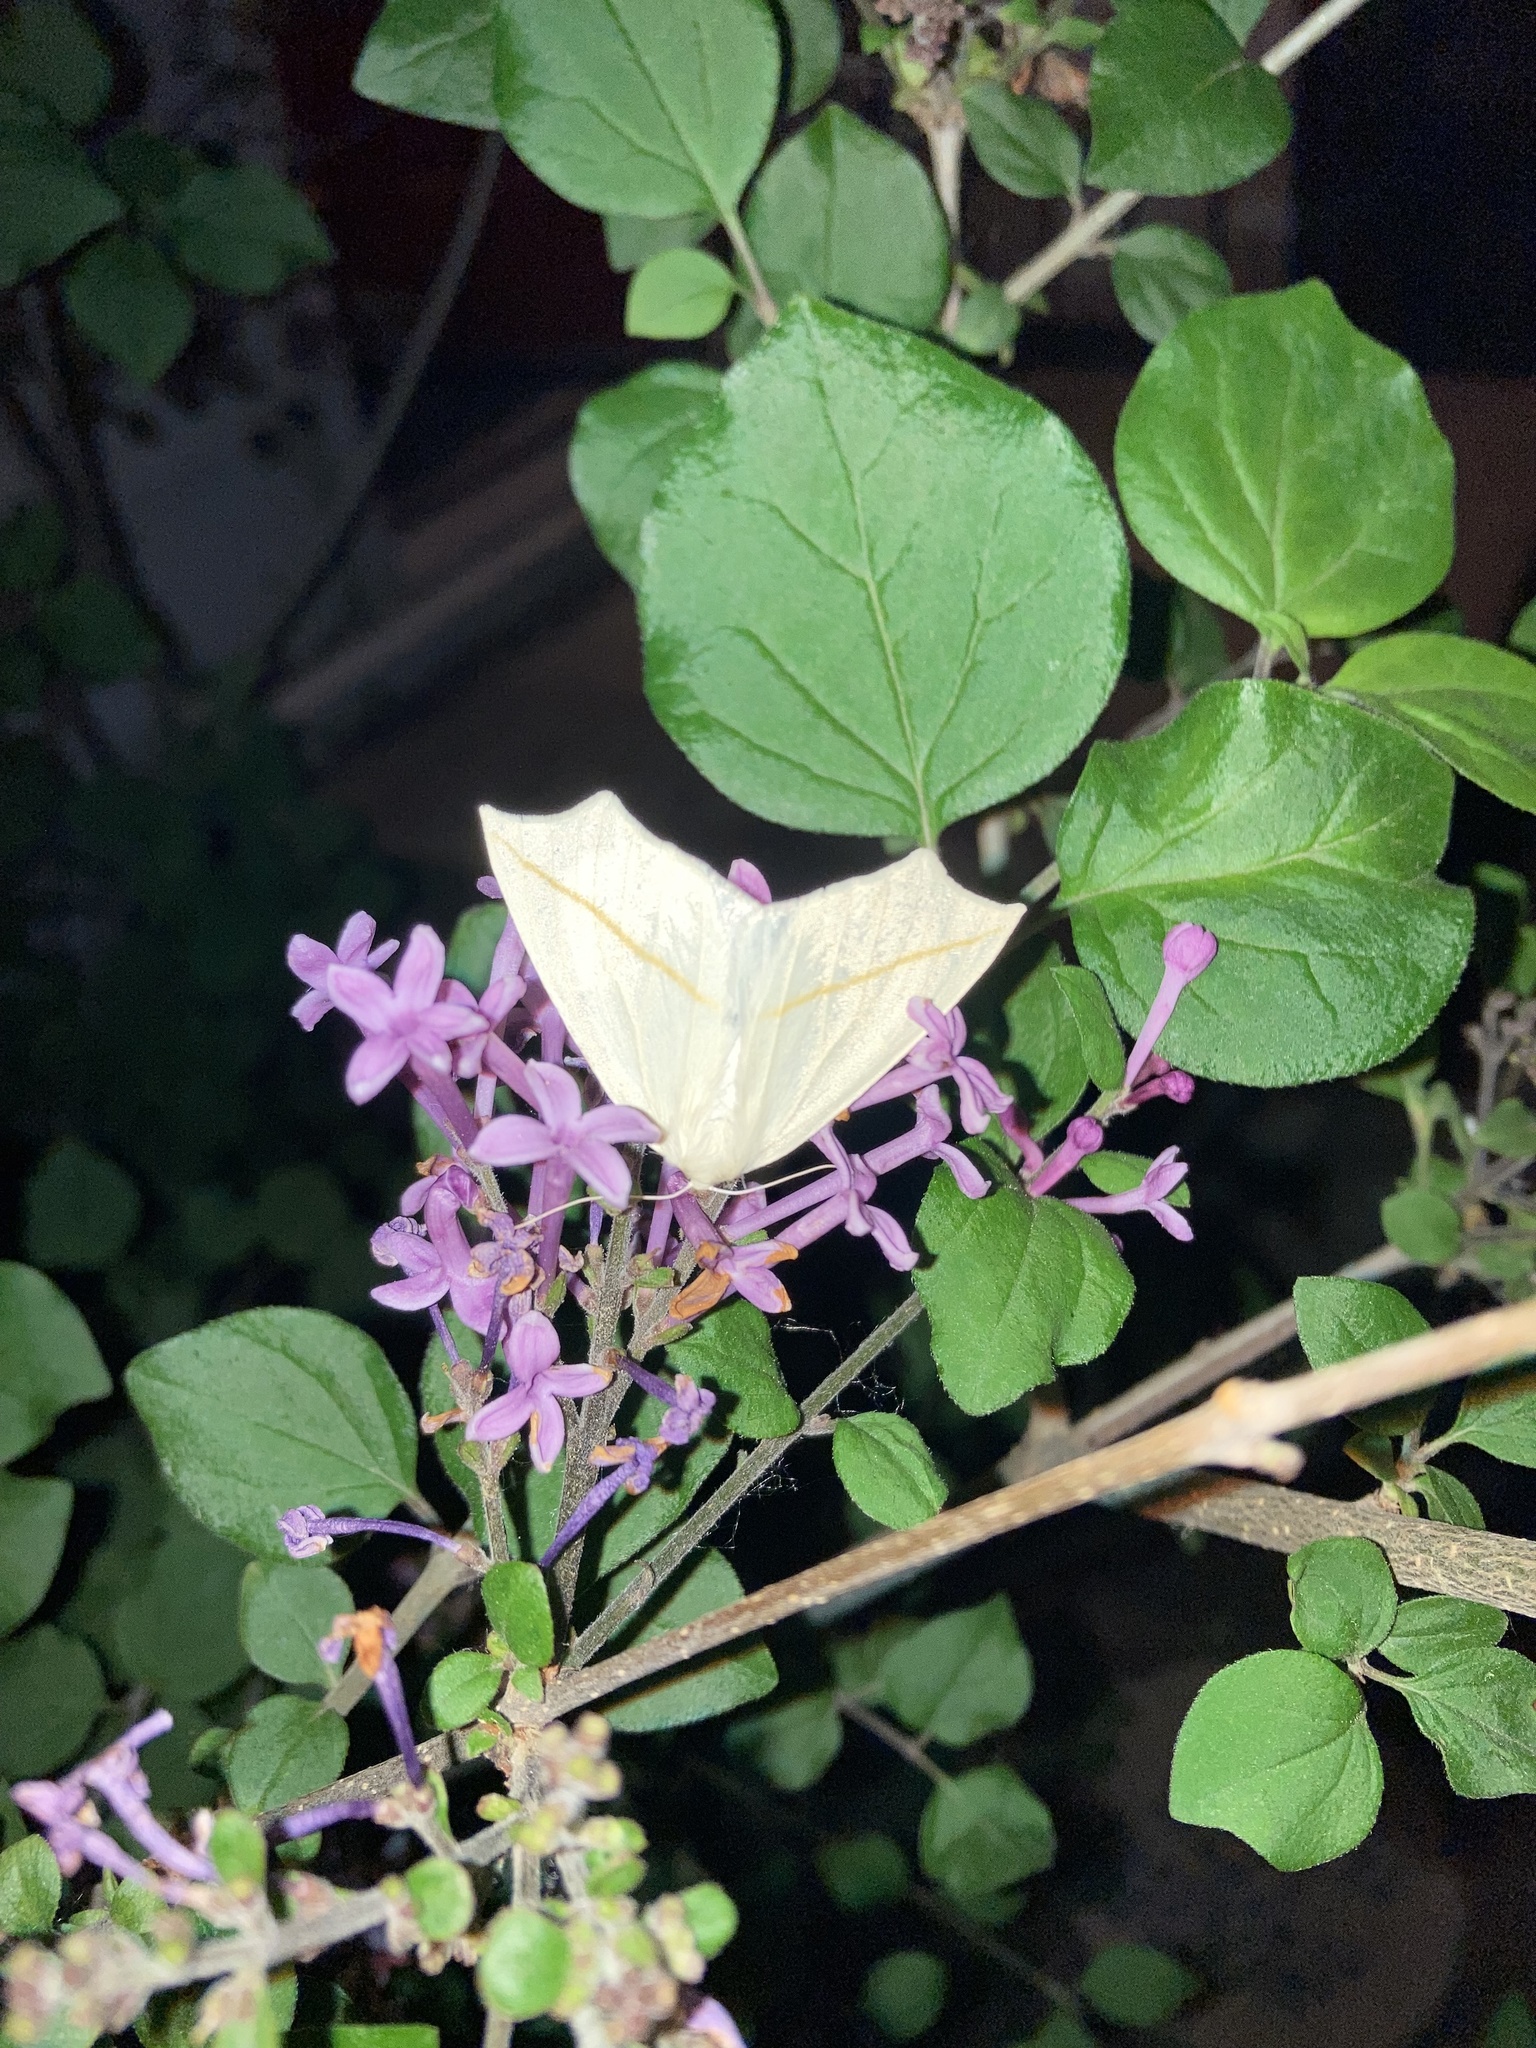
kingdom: Animalia
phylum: Arthropoda
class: Insecta
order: Lepidoptera
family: Geometridae
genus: Tetracis
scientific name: Tetracis cachexiata
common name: White slant-line
